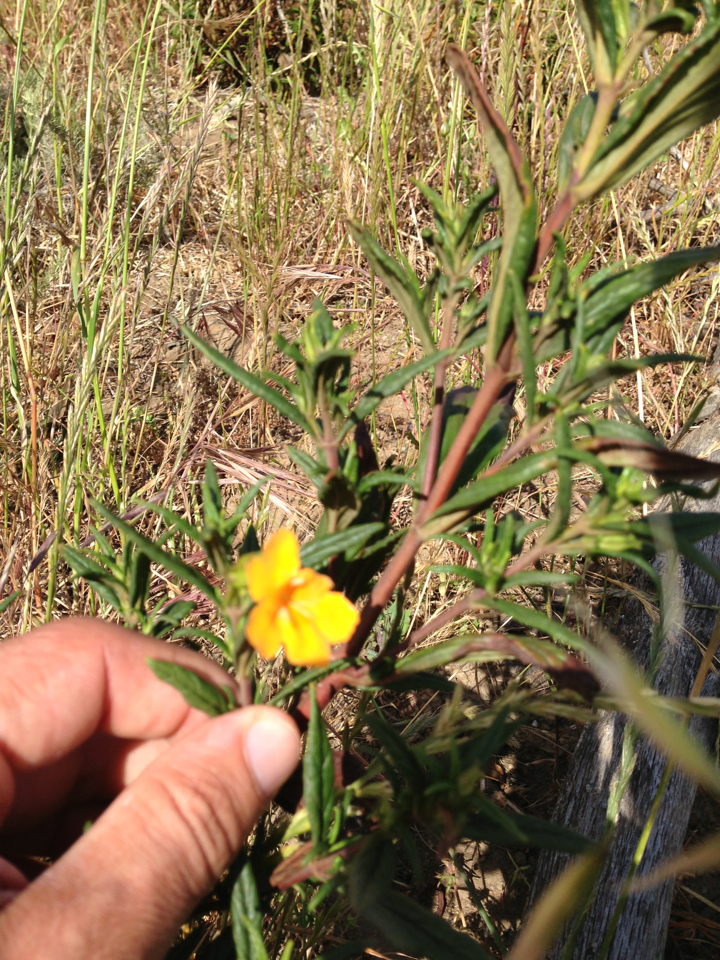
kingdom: Plantae
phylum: Tracheophyta
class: Magnoliopsida
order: Lamiales
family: Phrymaceae
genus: Diplacus
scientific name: Diplacus aurantiacus
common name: Bush monkey-flower
